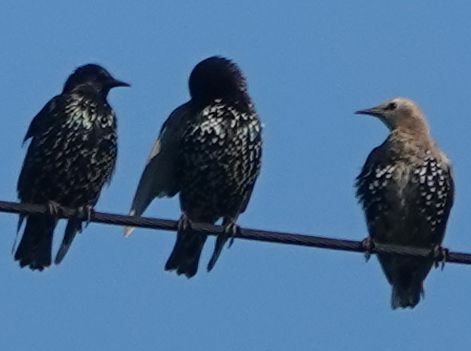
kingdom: Animalia
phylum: Chordata
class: Aves
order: Passeriformes
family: Sturnidae
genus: Sturnus
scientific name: Sturnus vulgaris
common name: Common starling
